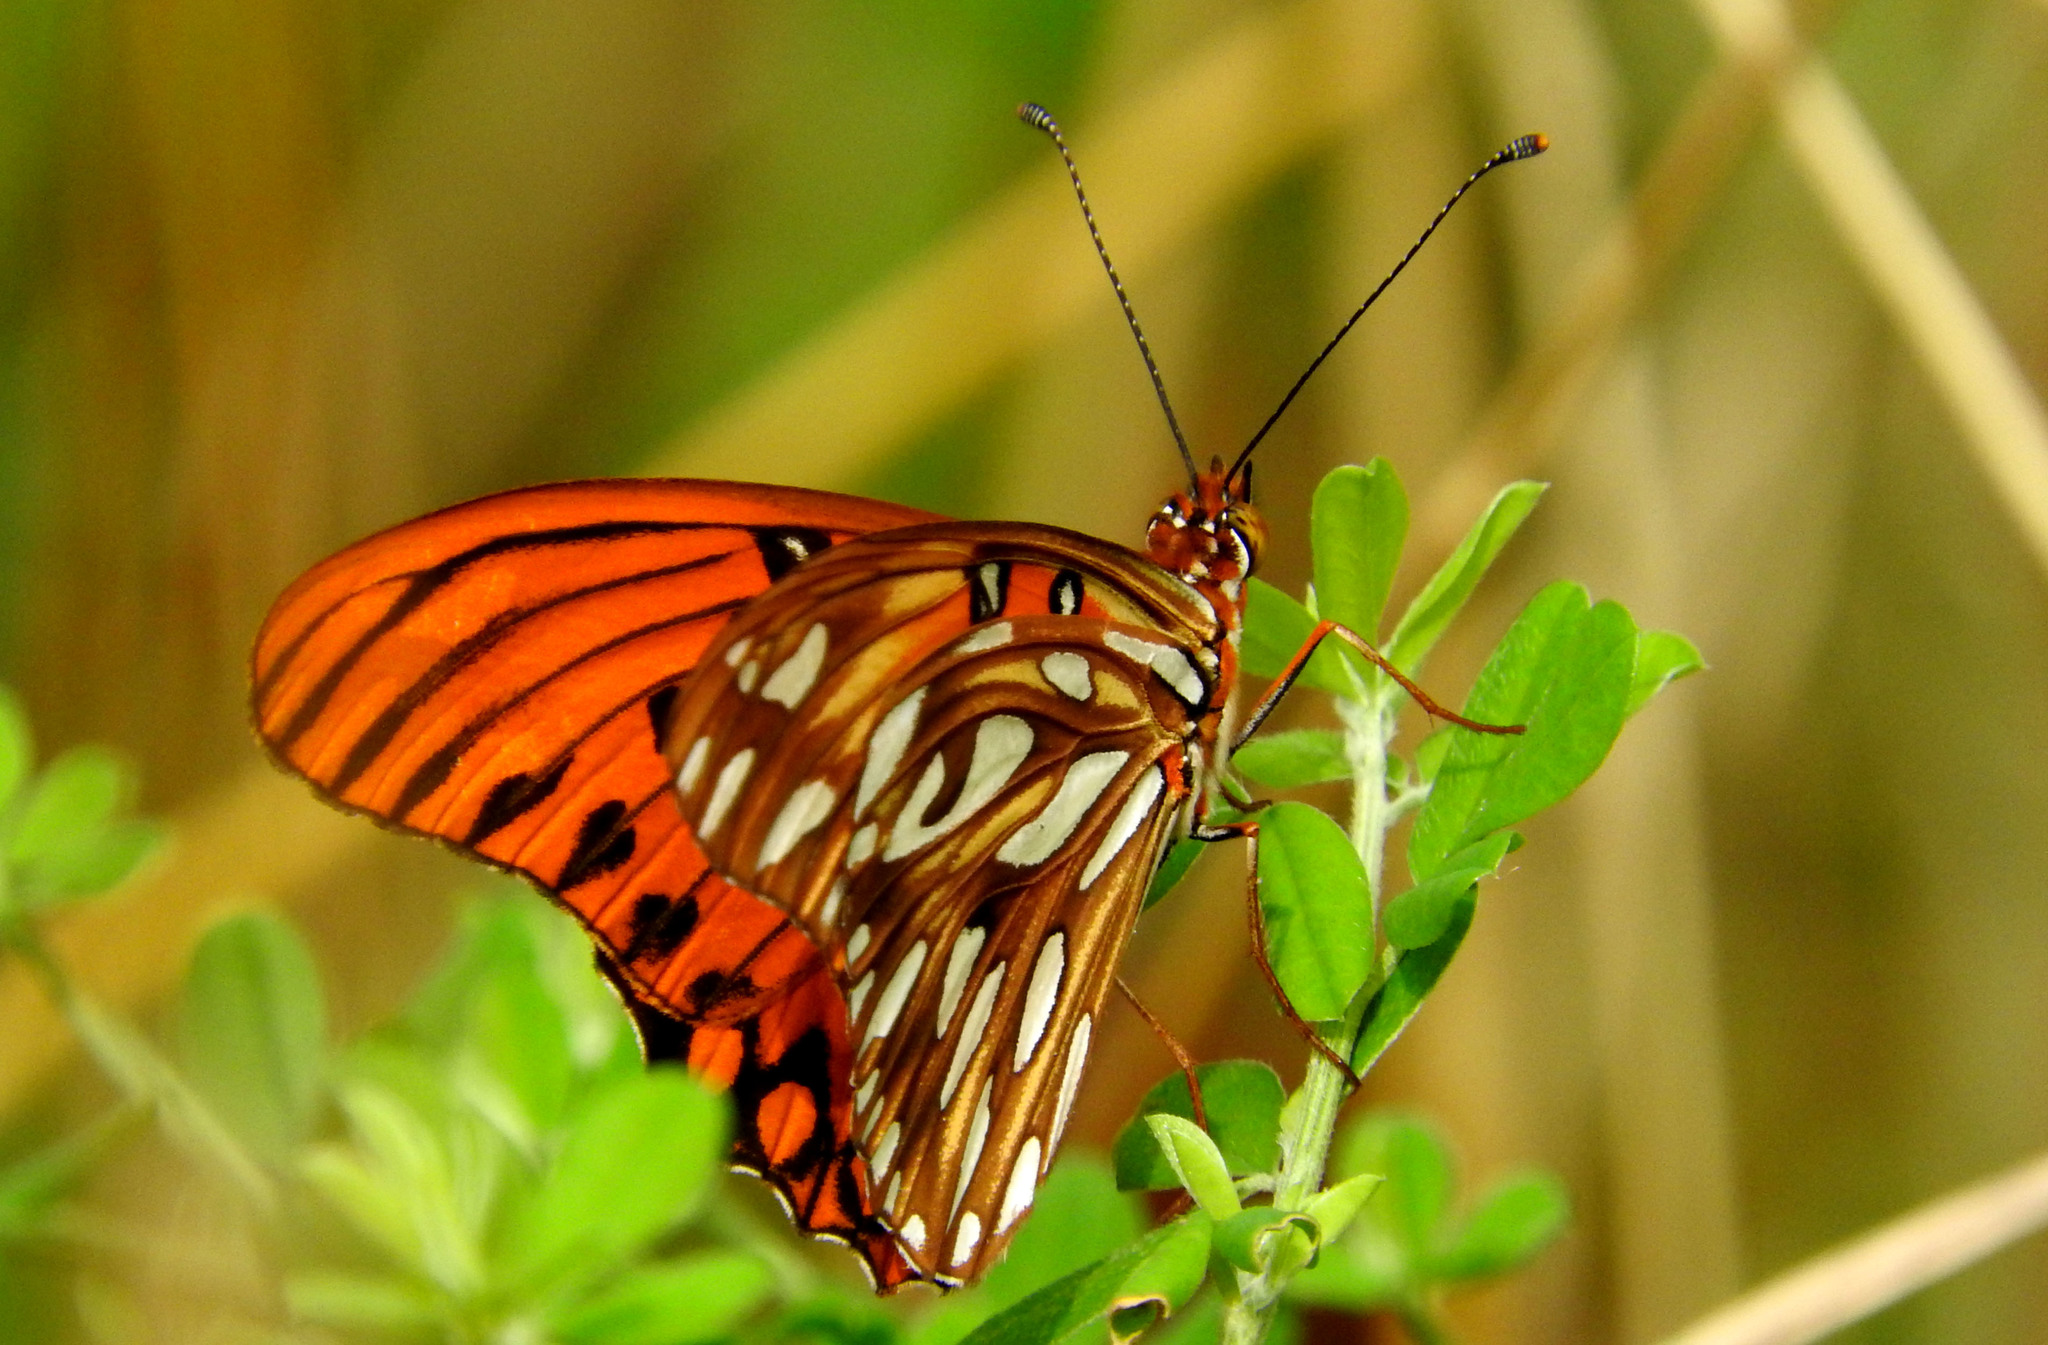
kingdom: Animalia
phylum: Arthropoda
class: Insecta
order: Lepidoptera
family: Nymphalidae
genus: Dione
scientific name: Dione vanillae
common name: Gulf fritillary
